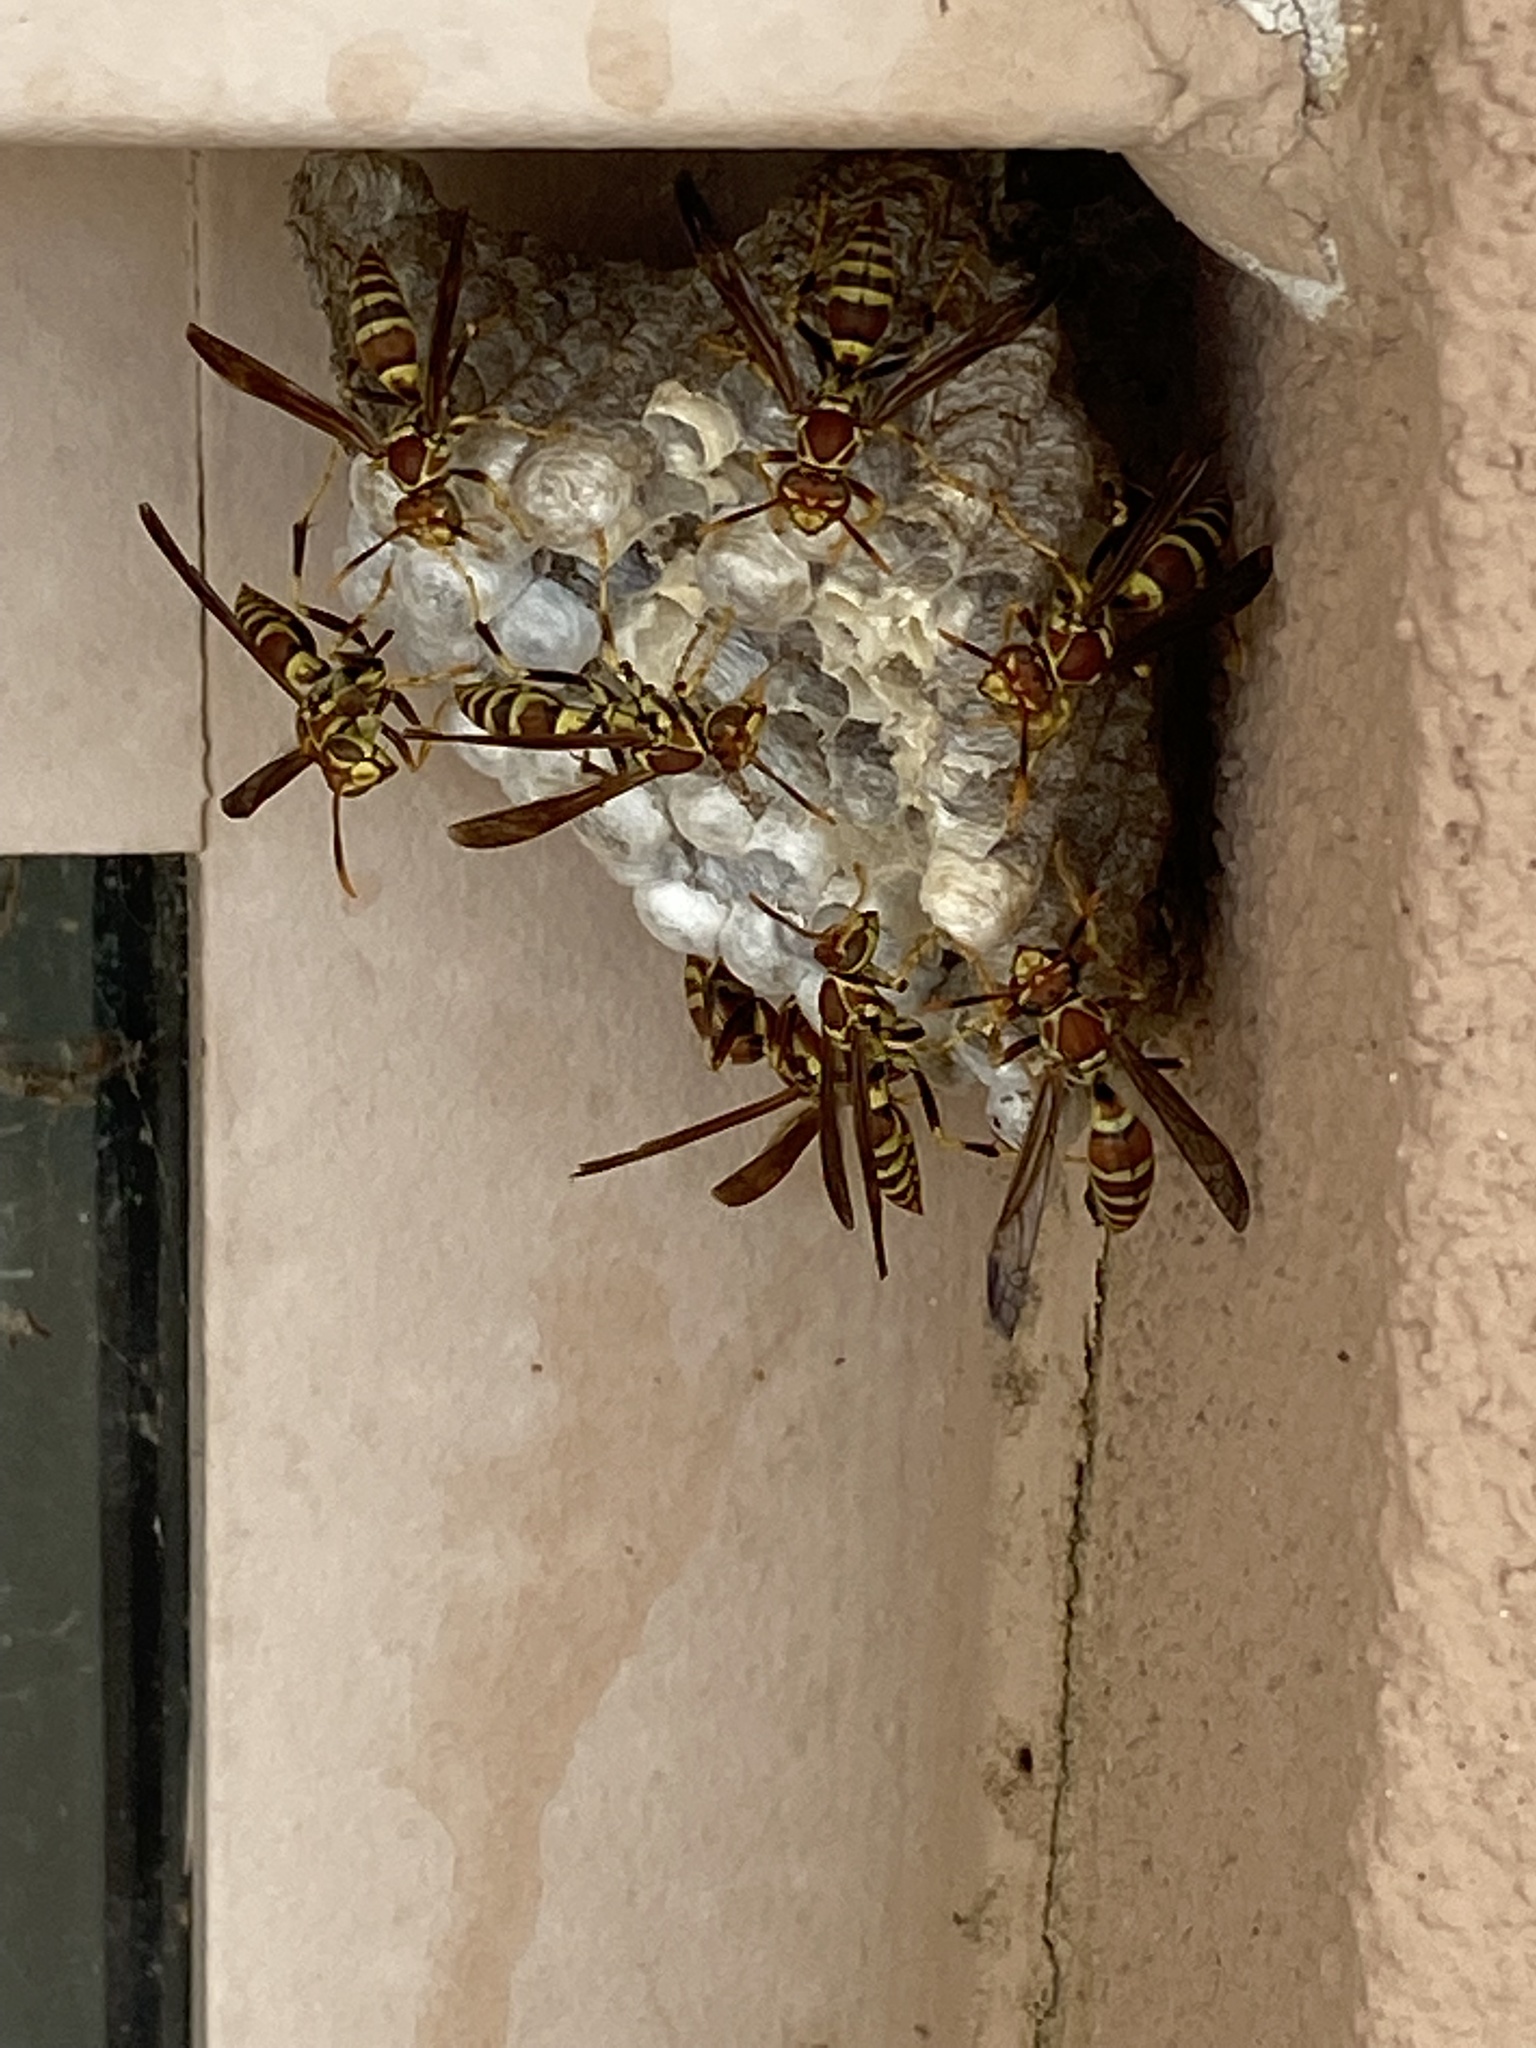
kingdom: Animalia
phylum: Arthropoda
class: Insecta
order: Hymenoptera
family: Eumenidae
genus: Polistes
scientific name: Polistes exclamans
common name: Paper wasp
